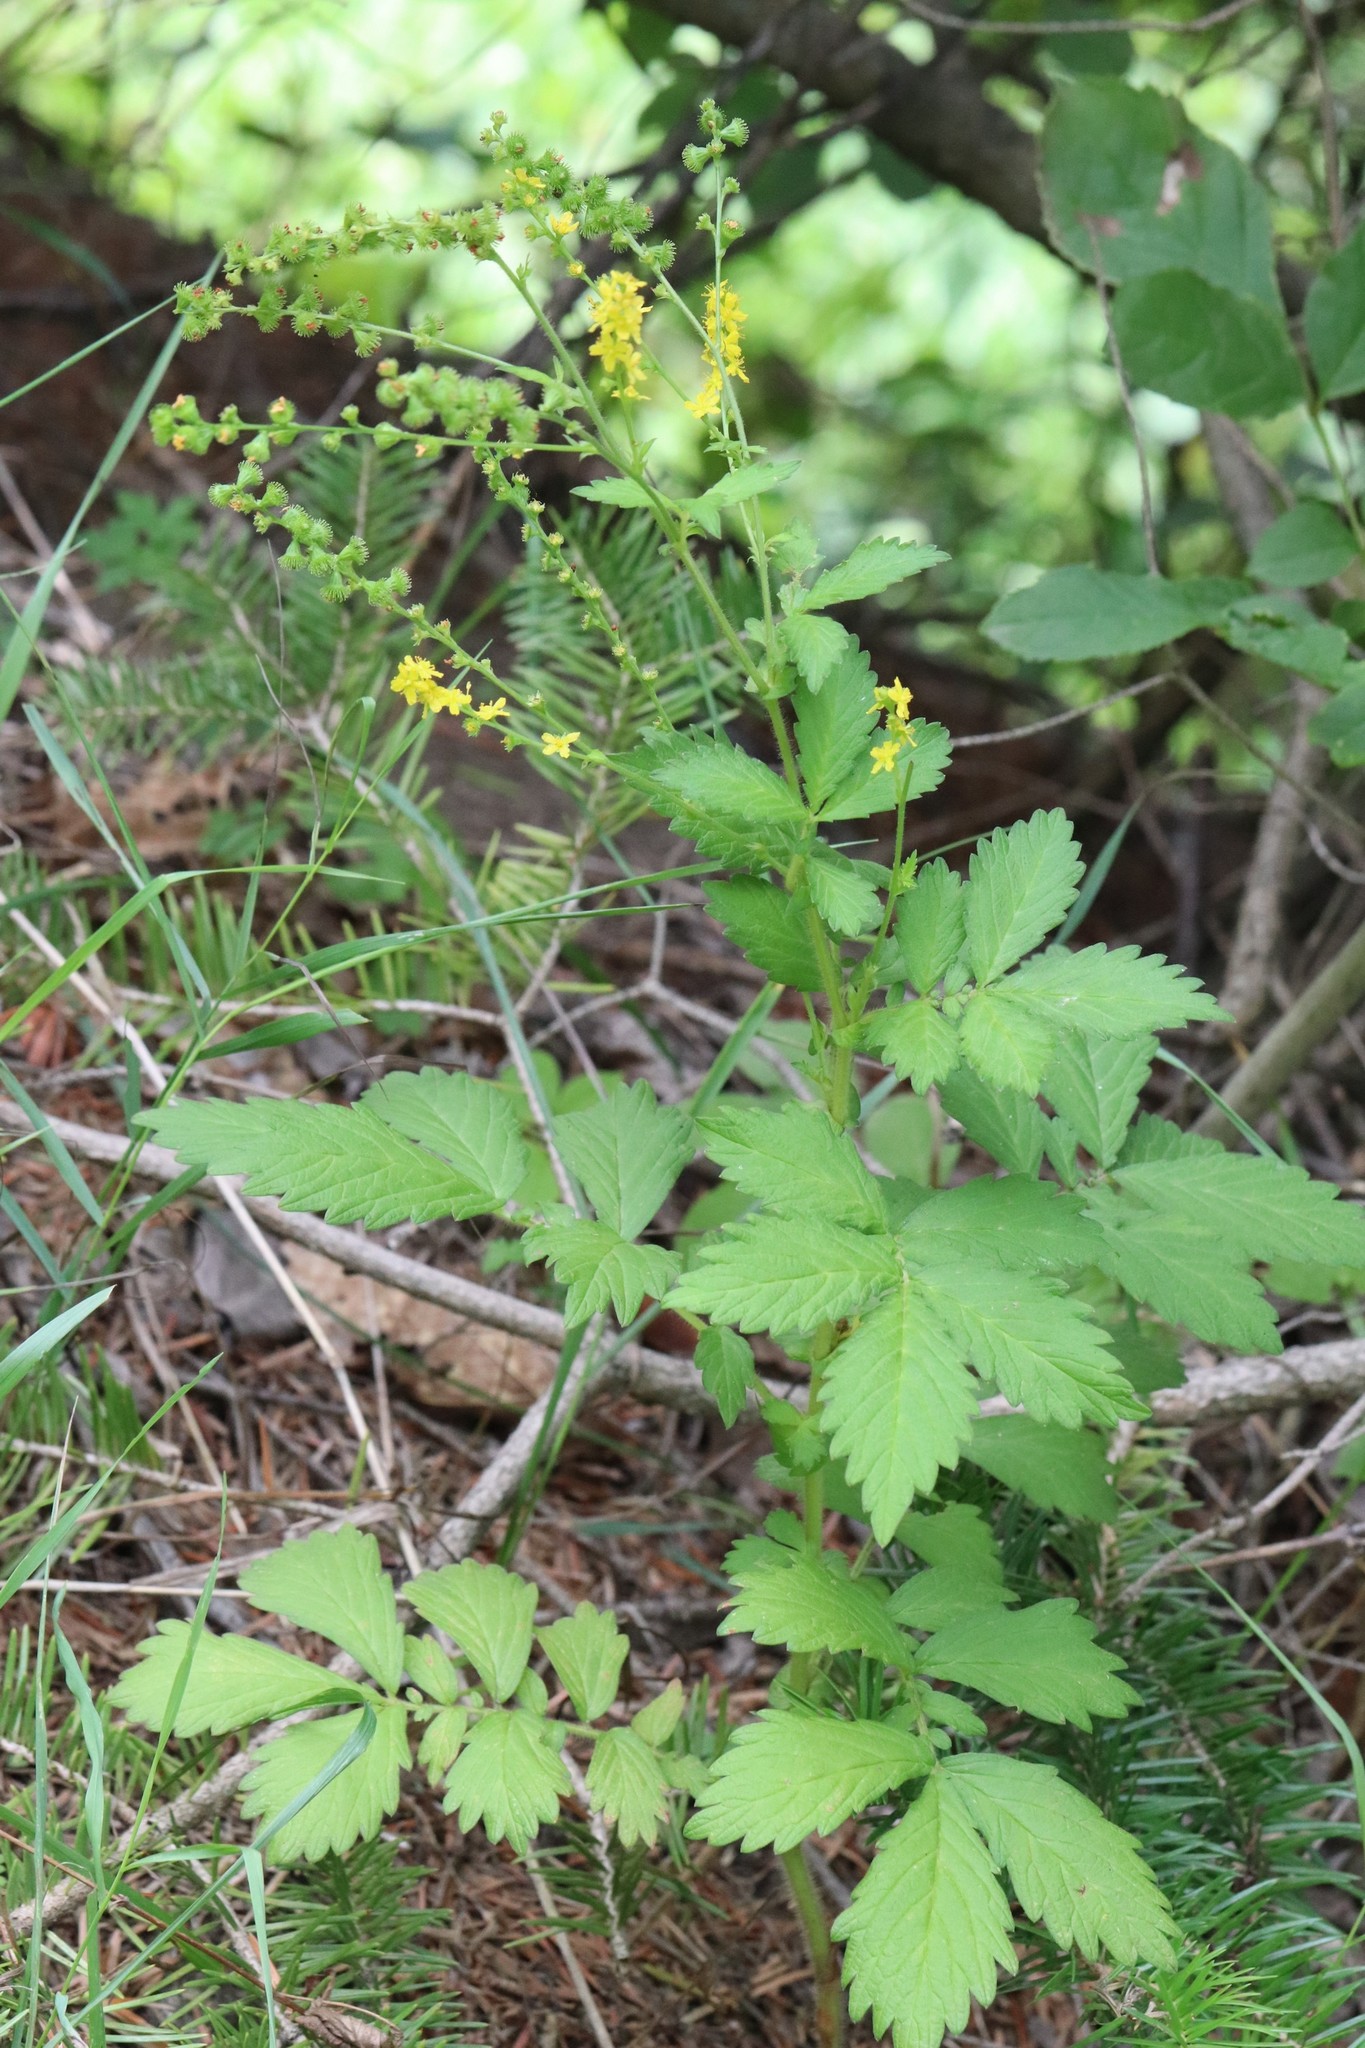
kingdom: Plantae
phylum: Tracheophyta
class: Magnoliopsida
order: Rosales
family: Rosaceae
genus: Agrimonia
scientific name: Agrimonia striata
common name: Britton's agrimony
